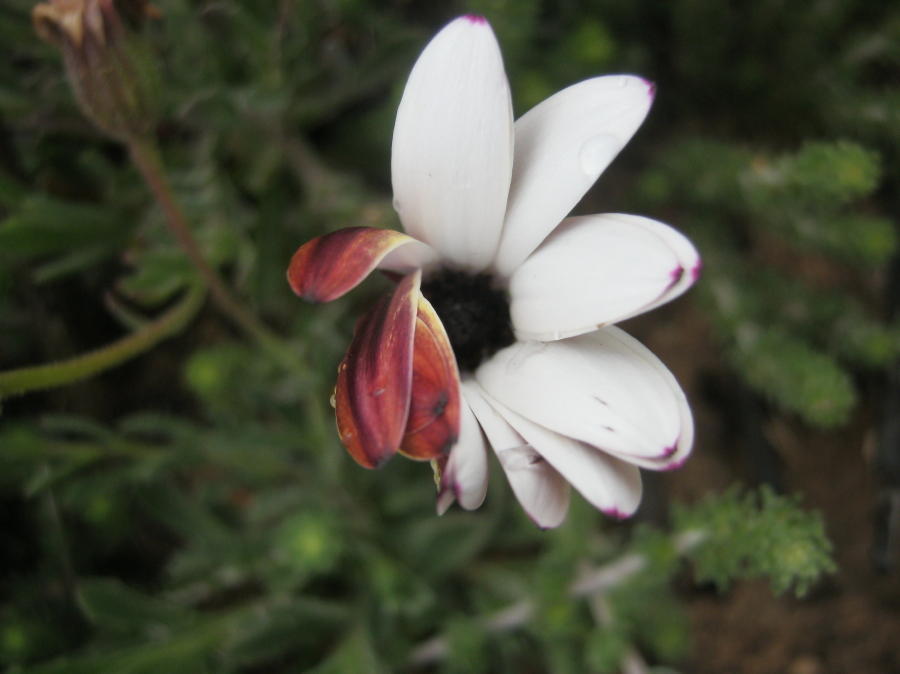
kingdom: Plantae
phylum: Tracheophyta
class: Magnoliopsida
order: Asterales
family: Asteraceae
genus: Dimorphotheca
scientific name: Dimorphotheca montana
